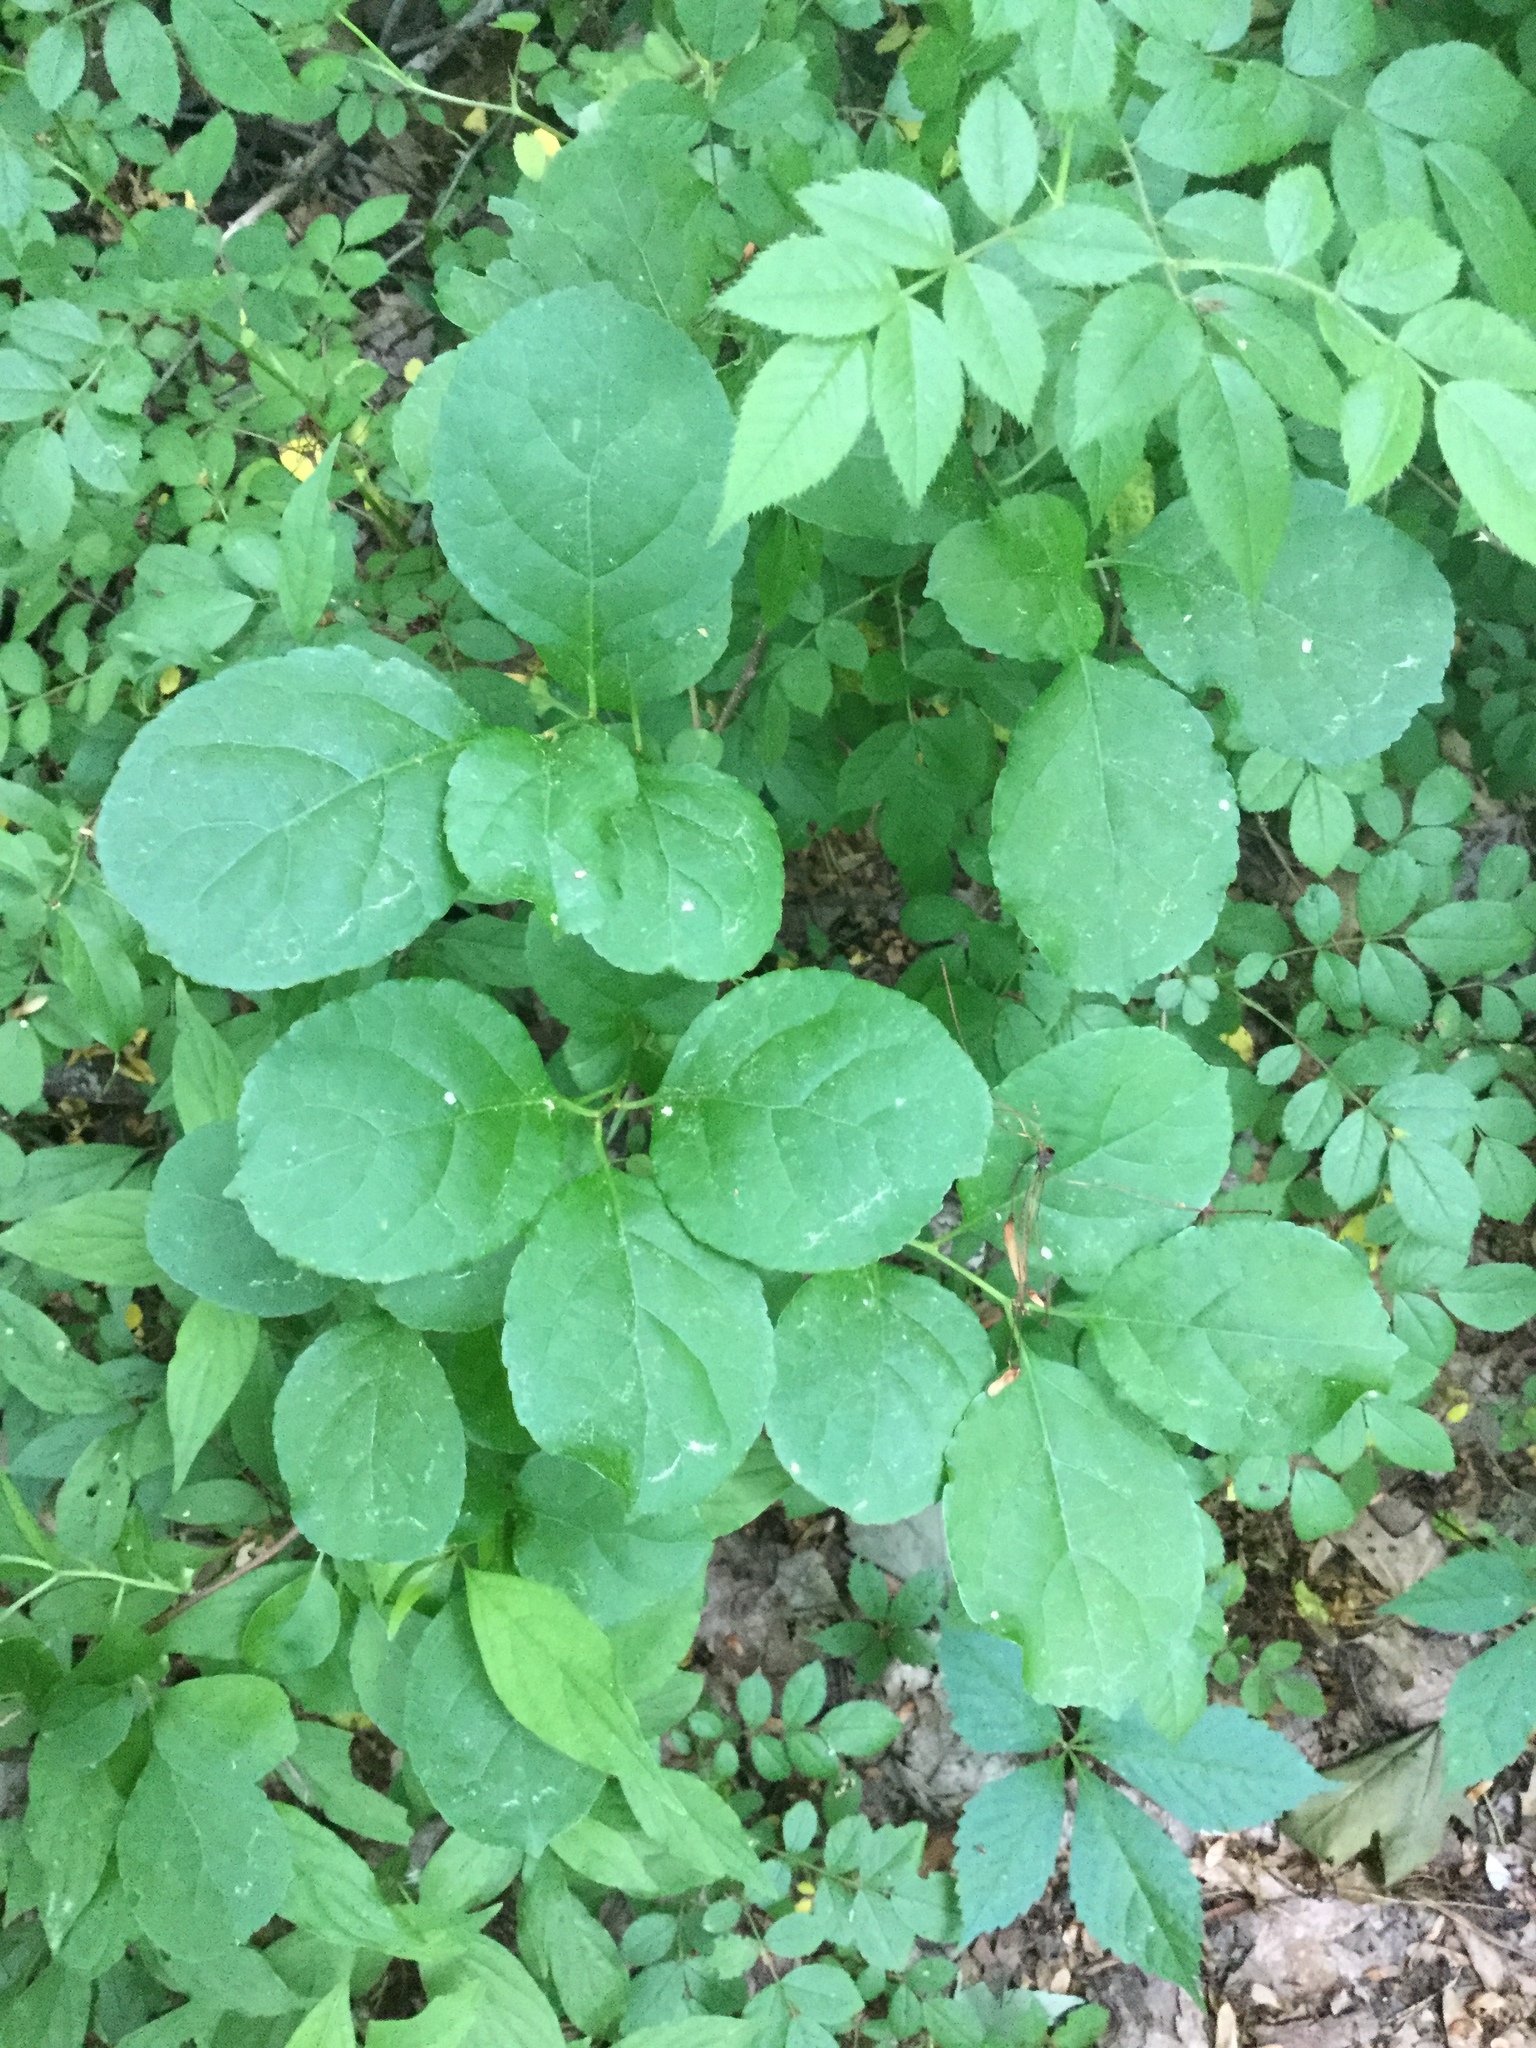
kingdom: Plantae
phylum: Tracheophyta
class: Magnoliopsida
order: Celastrales
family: Celastraceae
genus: Celastrus
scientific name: Celastrus orbiculatus
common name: Oriental bittersweet
